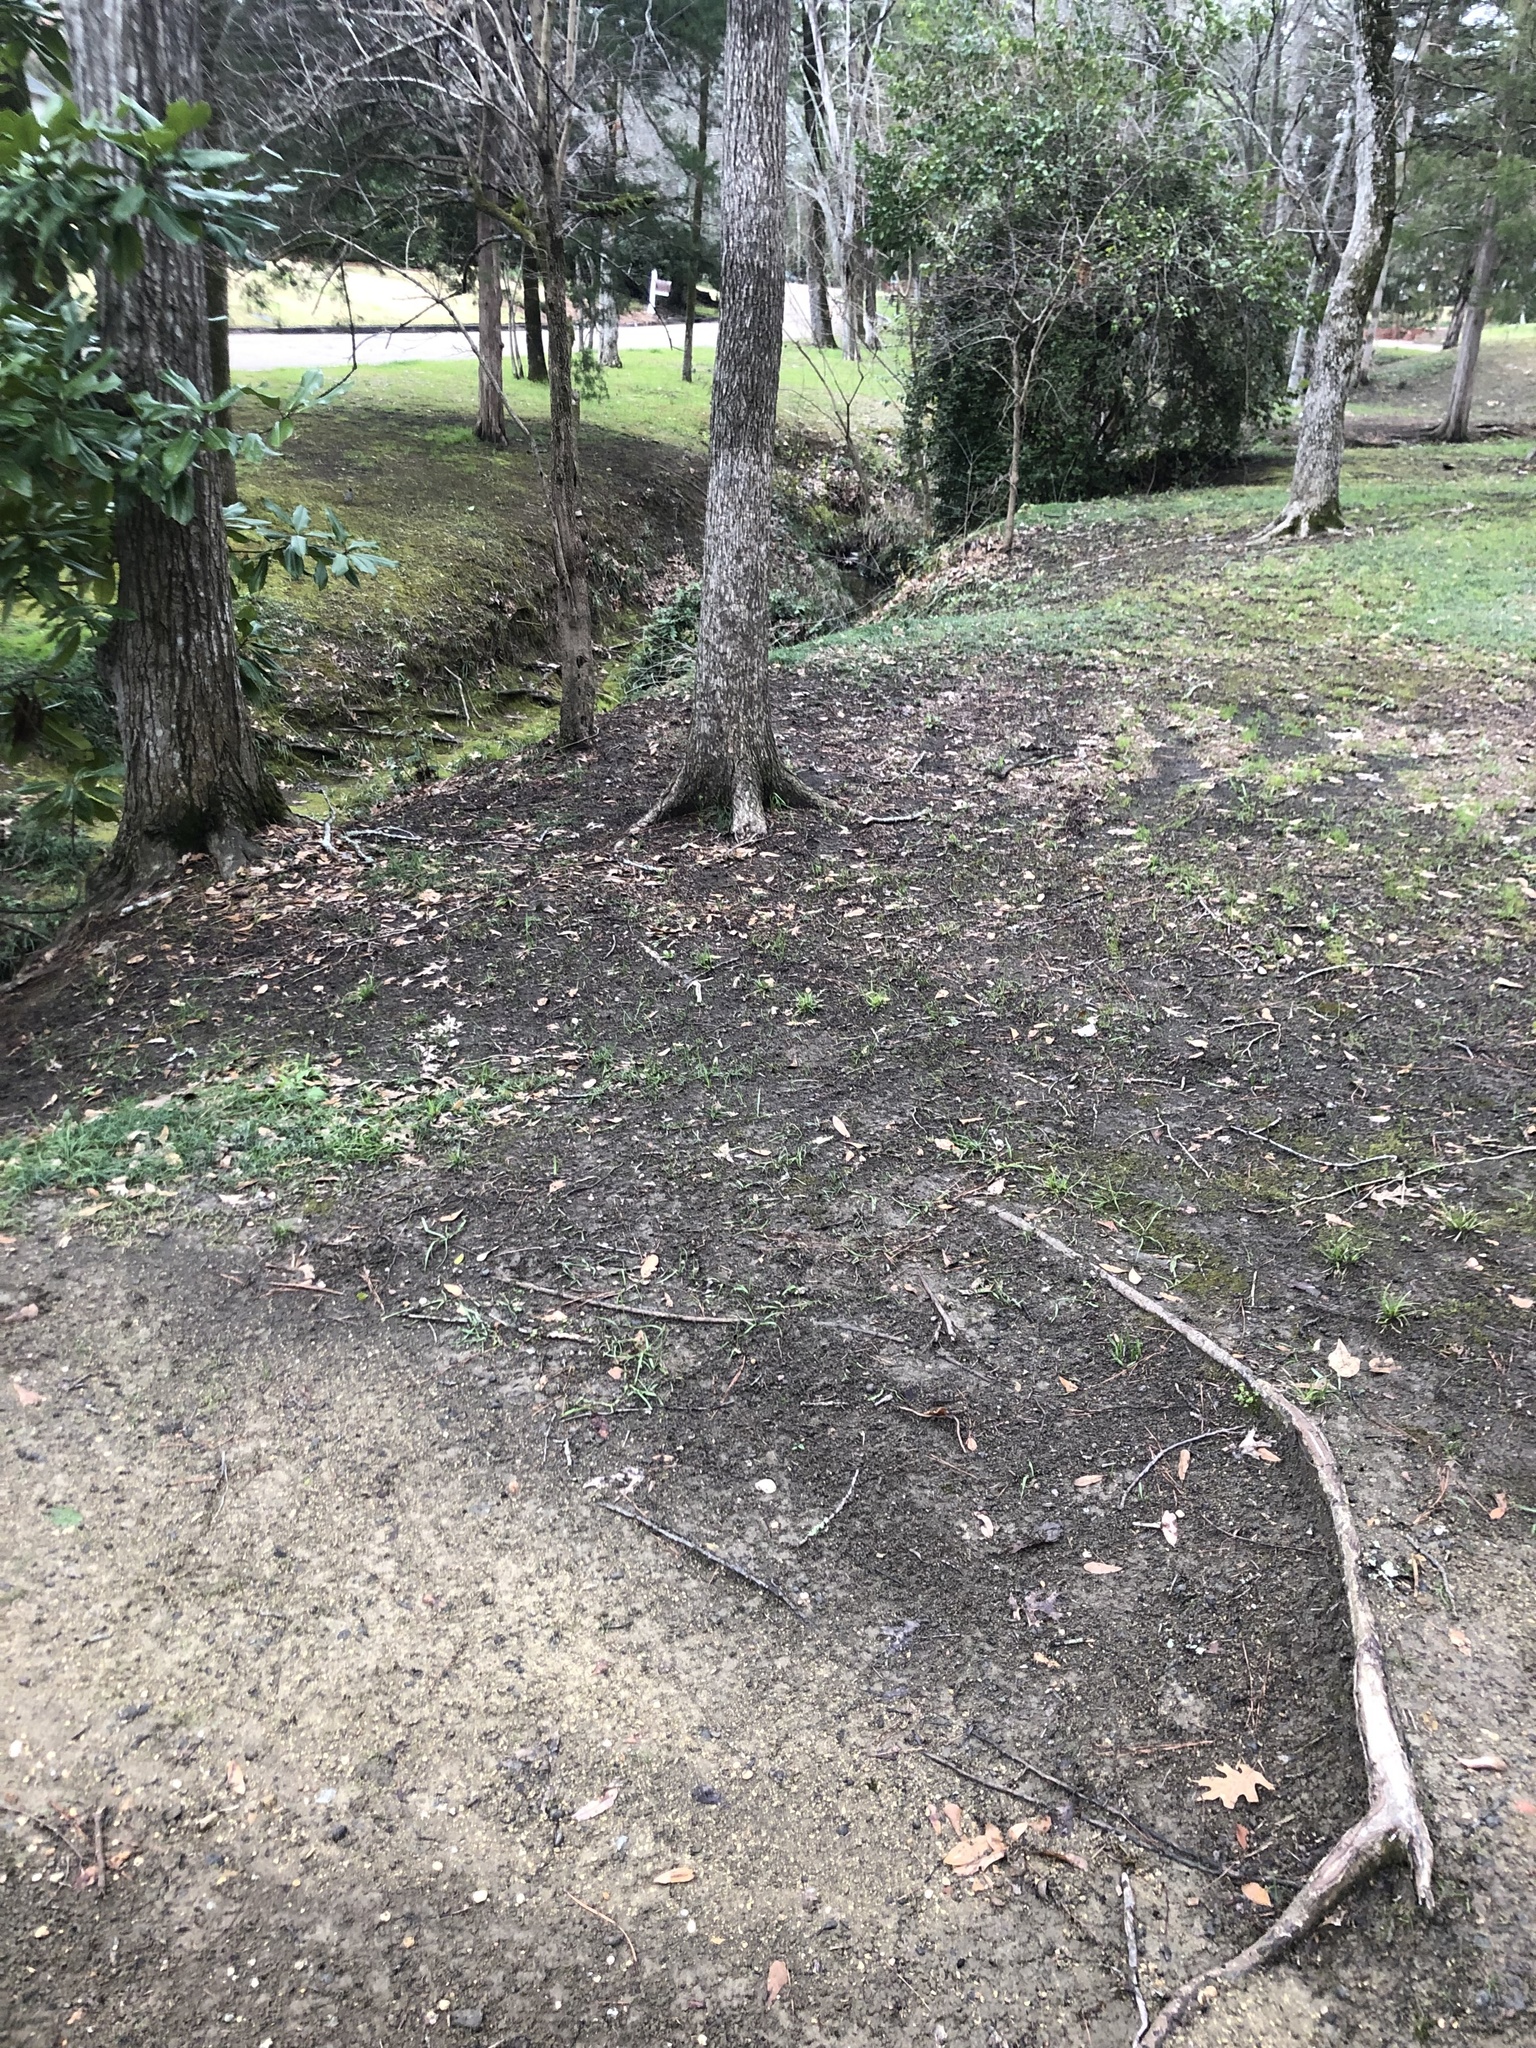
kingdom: Plantae
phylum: Tracheophyta
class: Liliopsida
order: Asparagales
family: Asparagaceae
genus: Camassia
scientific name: Camassia scilloides
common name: Wild hyacinth
